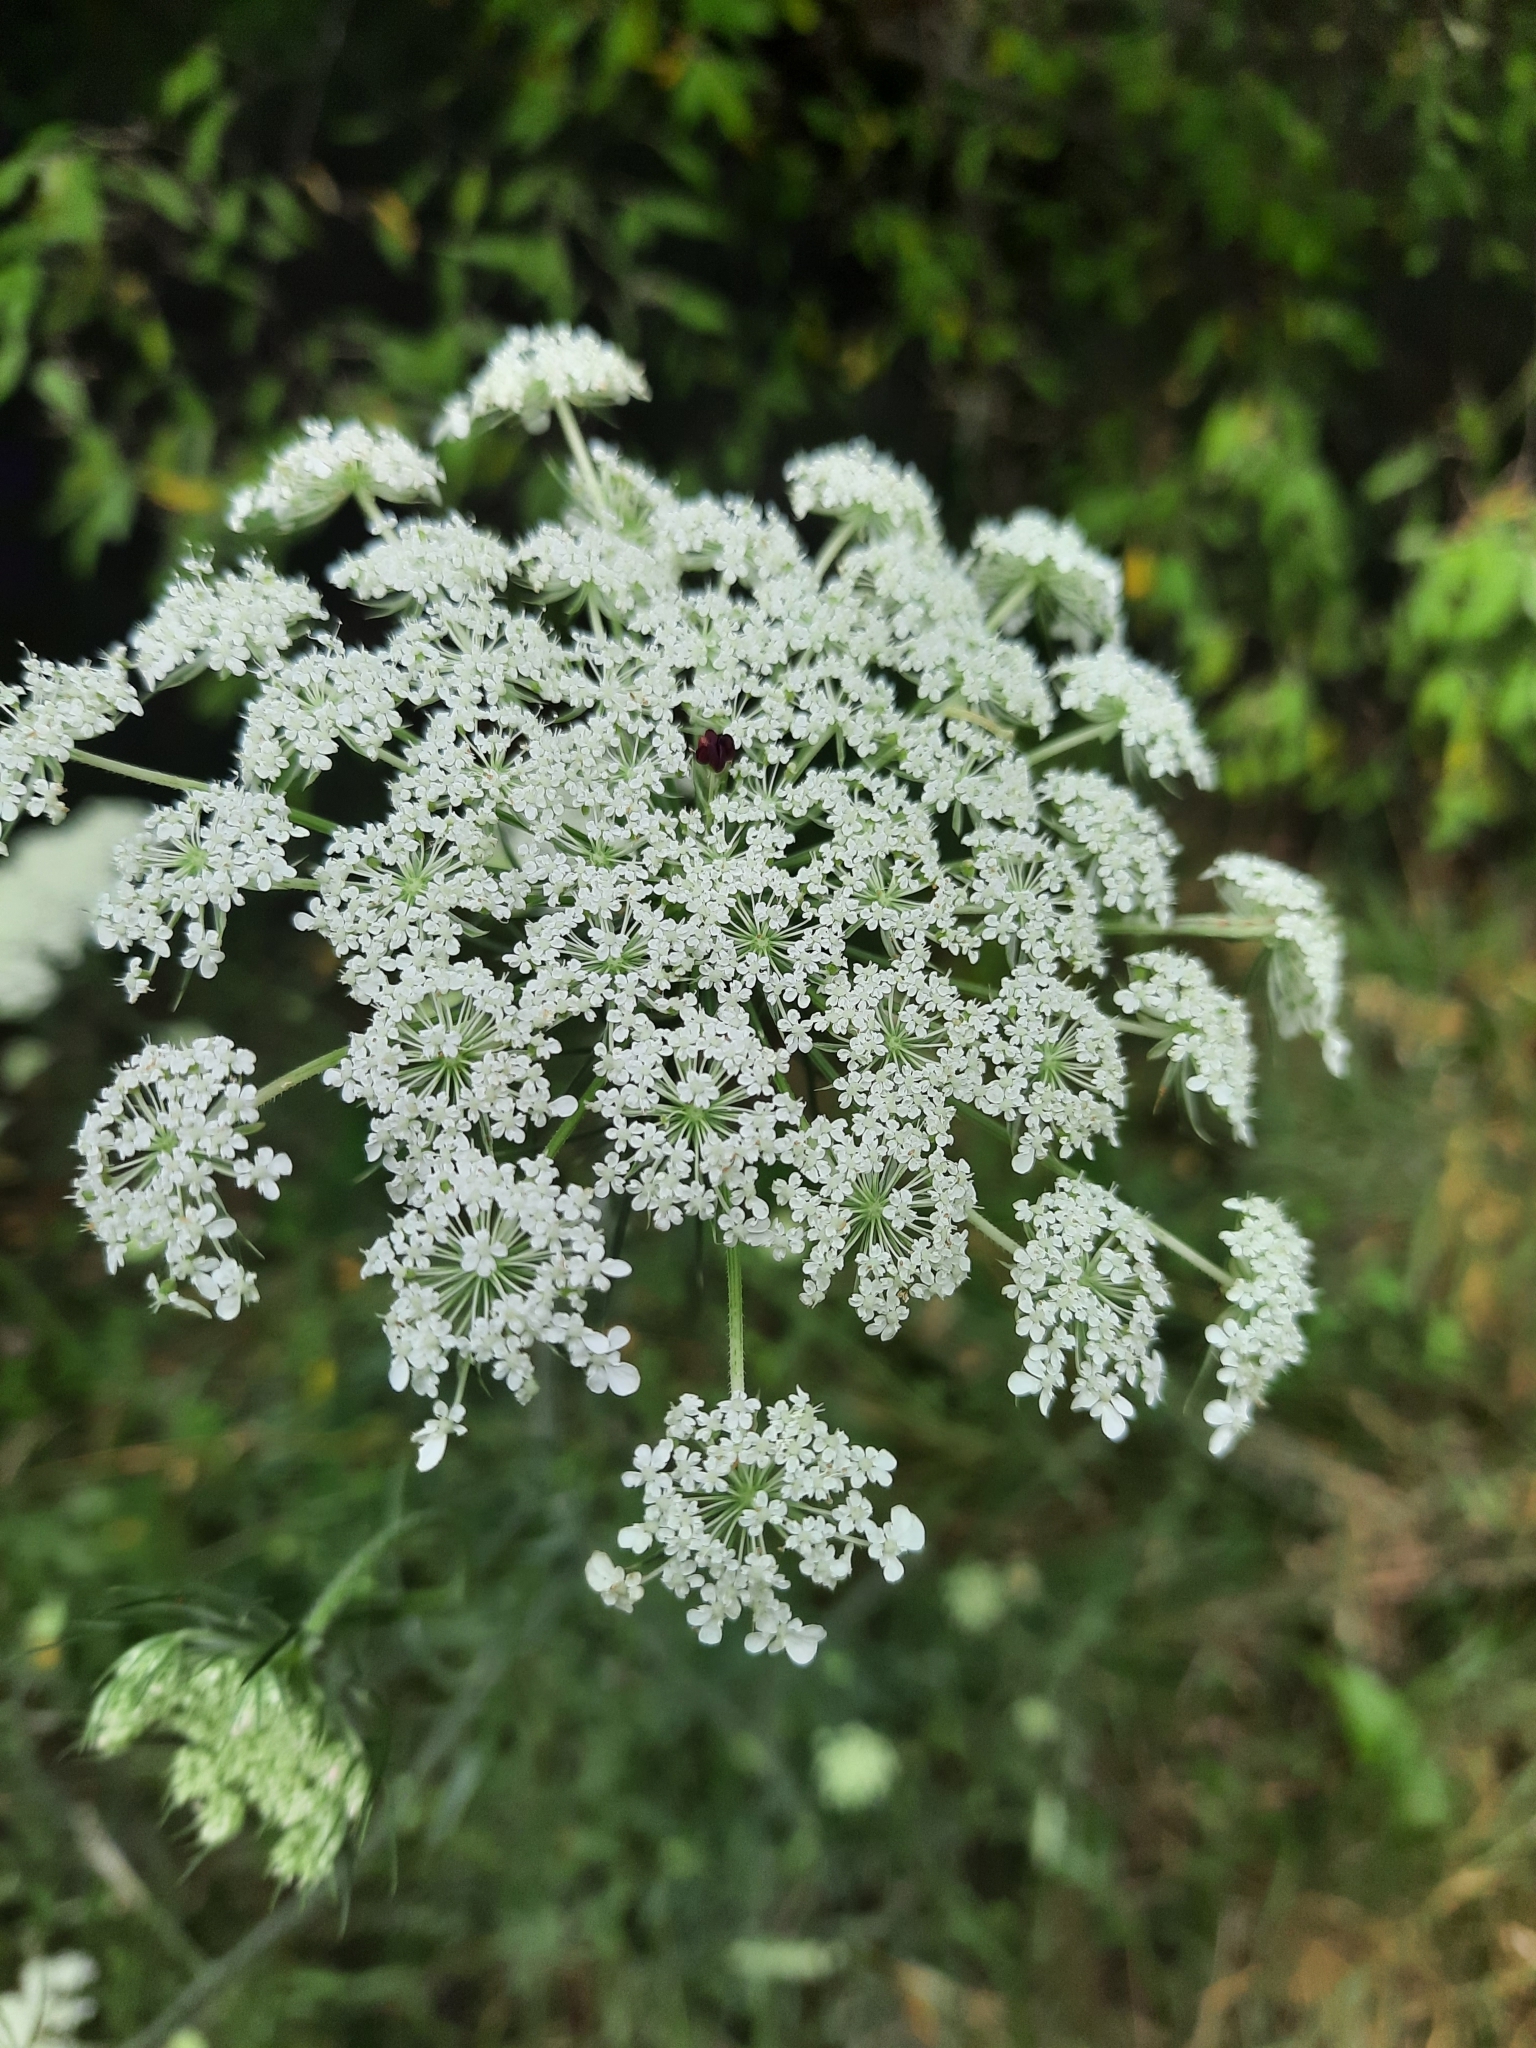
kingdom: Plantae
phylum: Tracheophyta
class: Magnoliopsida
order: Apiales
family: Apiaceae
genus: Daucus
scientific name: Daucus carota
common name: Wild carrot
